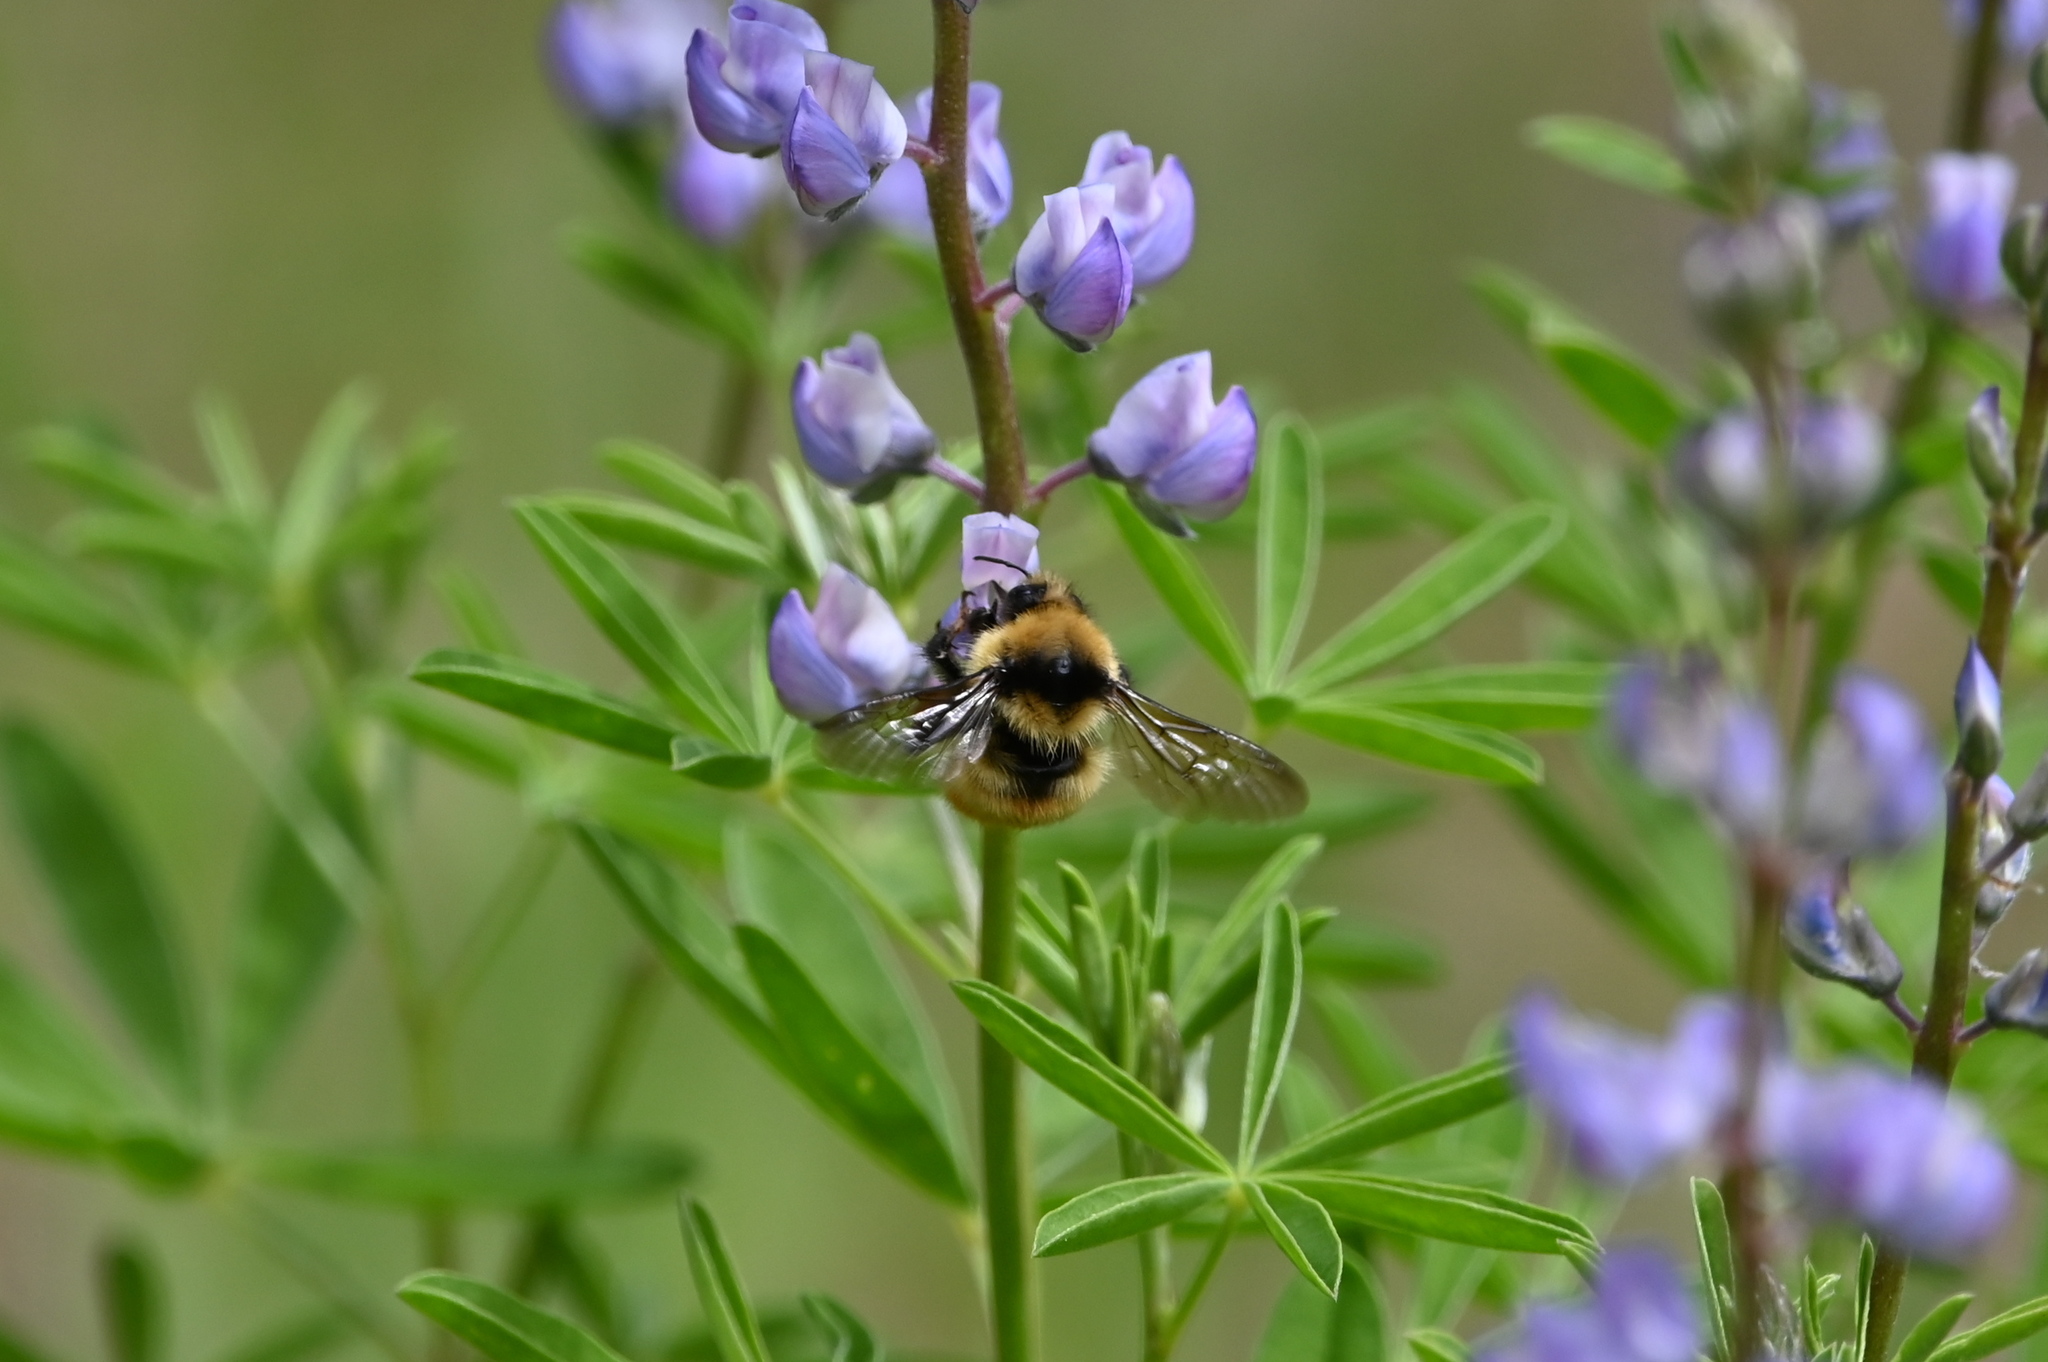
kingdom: Animalia
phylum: Arthropoda
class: Insecta
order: Hymenoptera
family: Apidae
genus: Pyrobombus
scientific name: Pyrobombus
